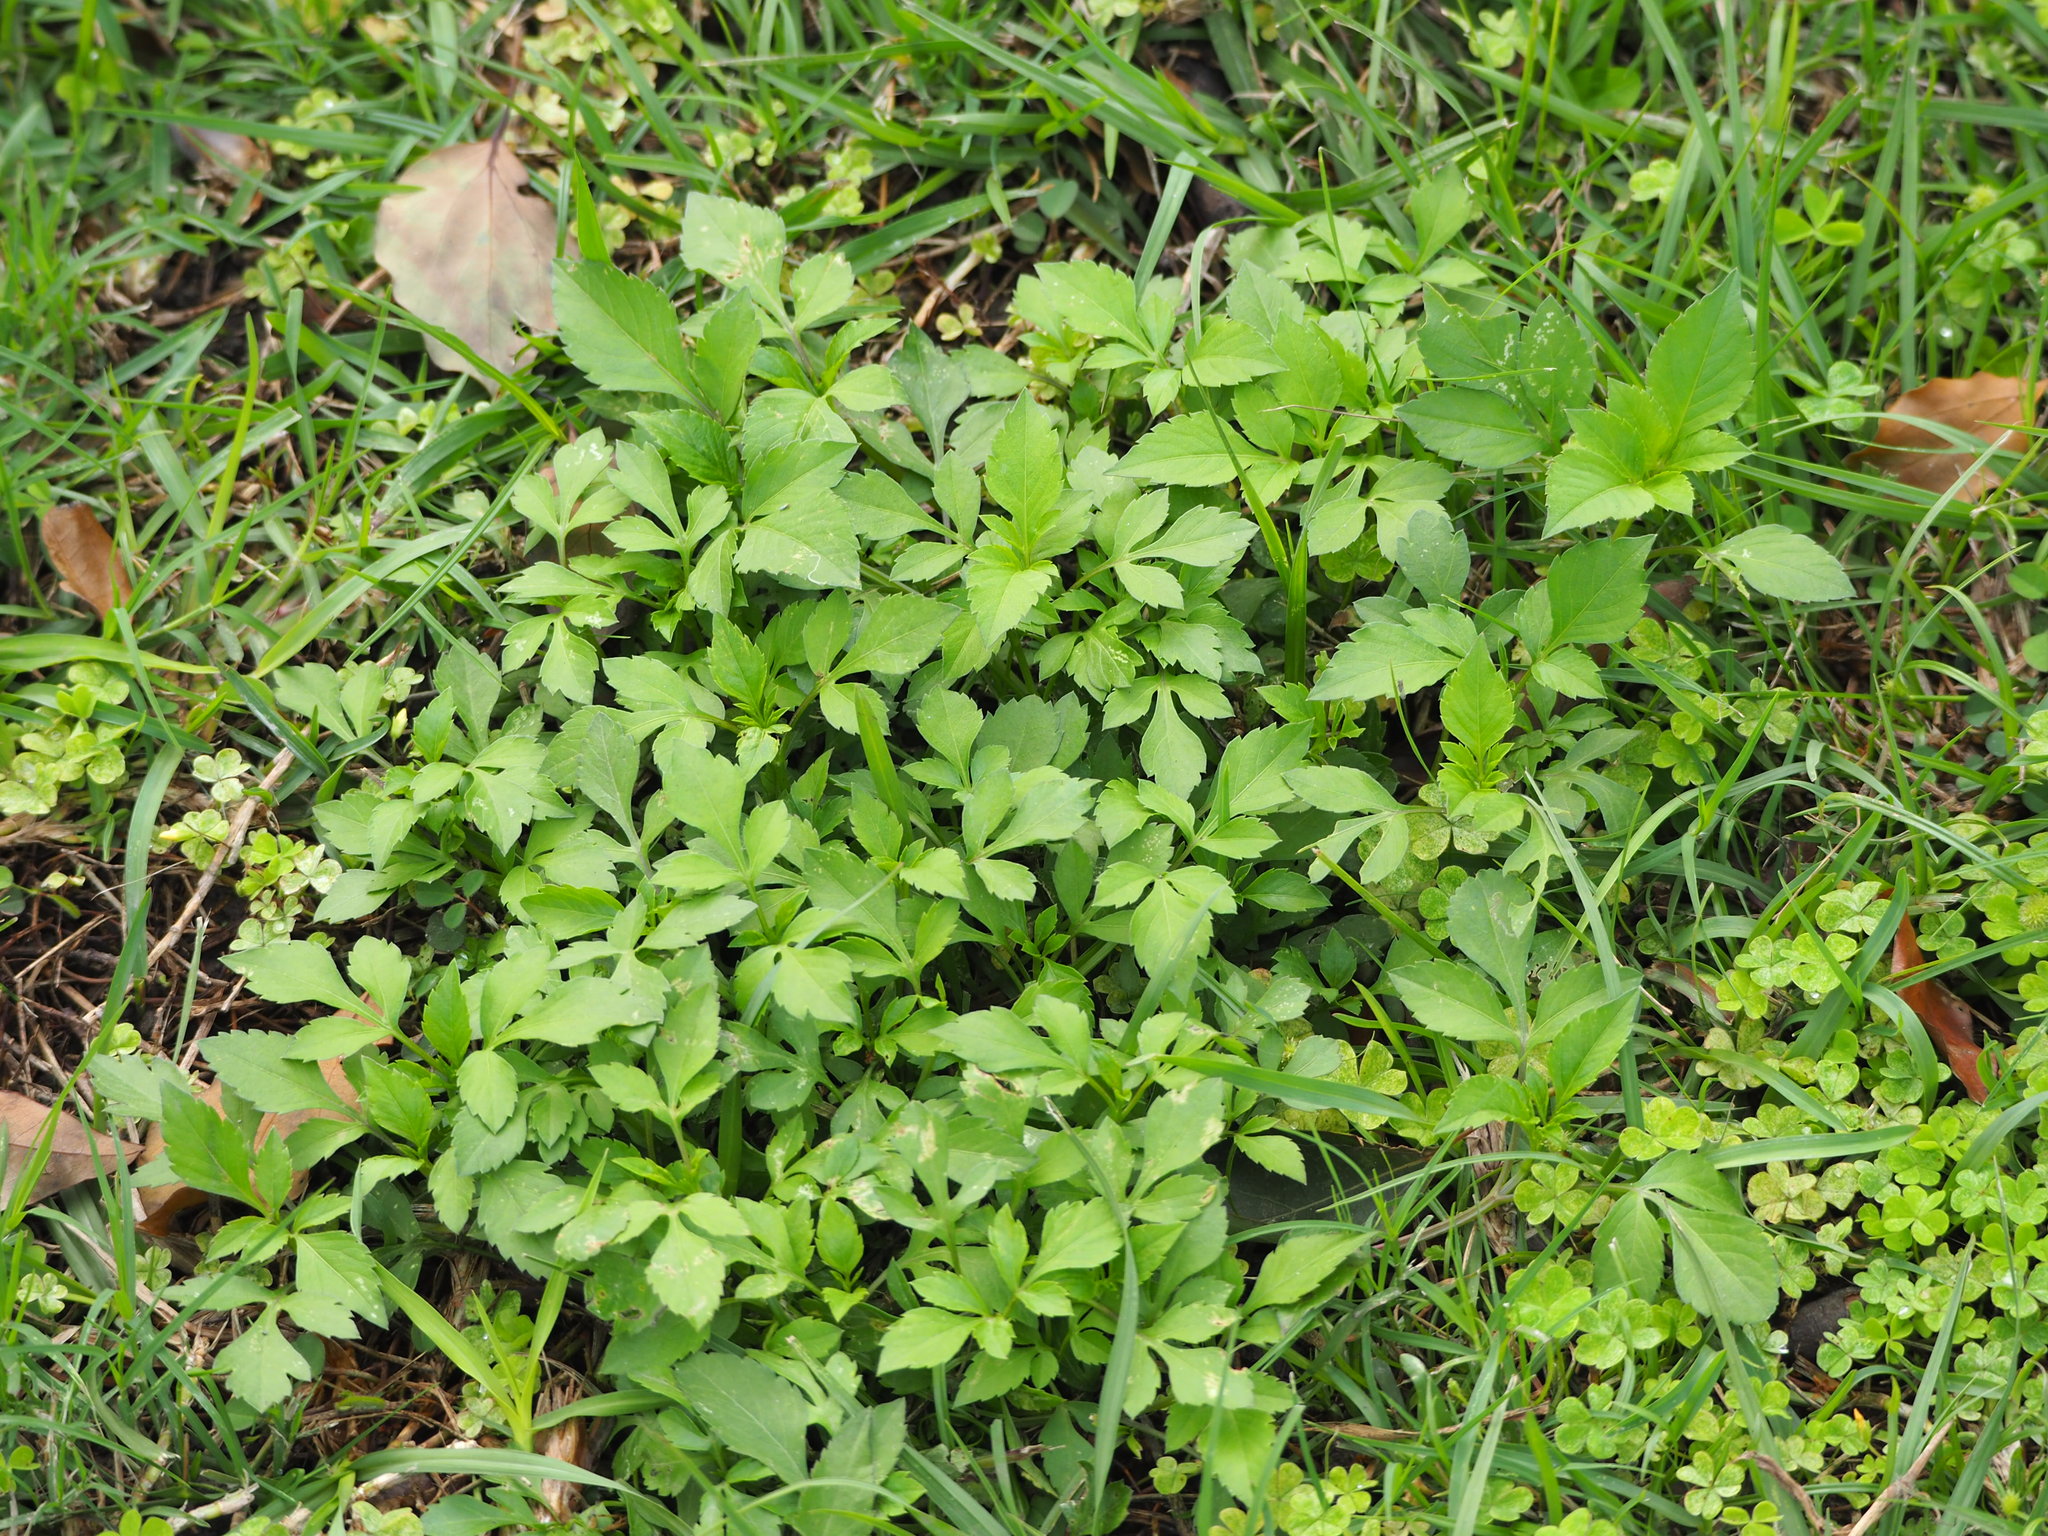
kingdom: Plantae
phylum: Tracheophyta
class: Magnoliopsida
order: Asterales
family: Asteraceae
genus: Bidens
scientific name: Bidens alba
